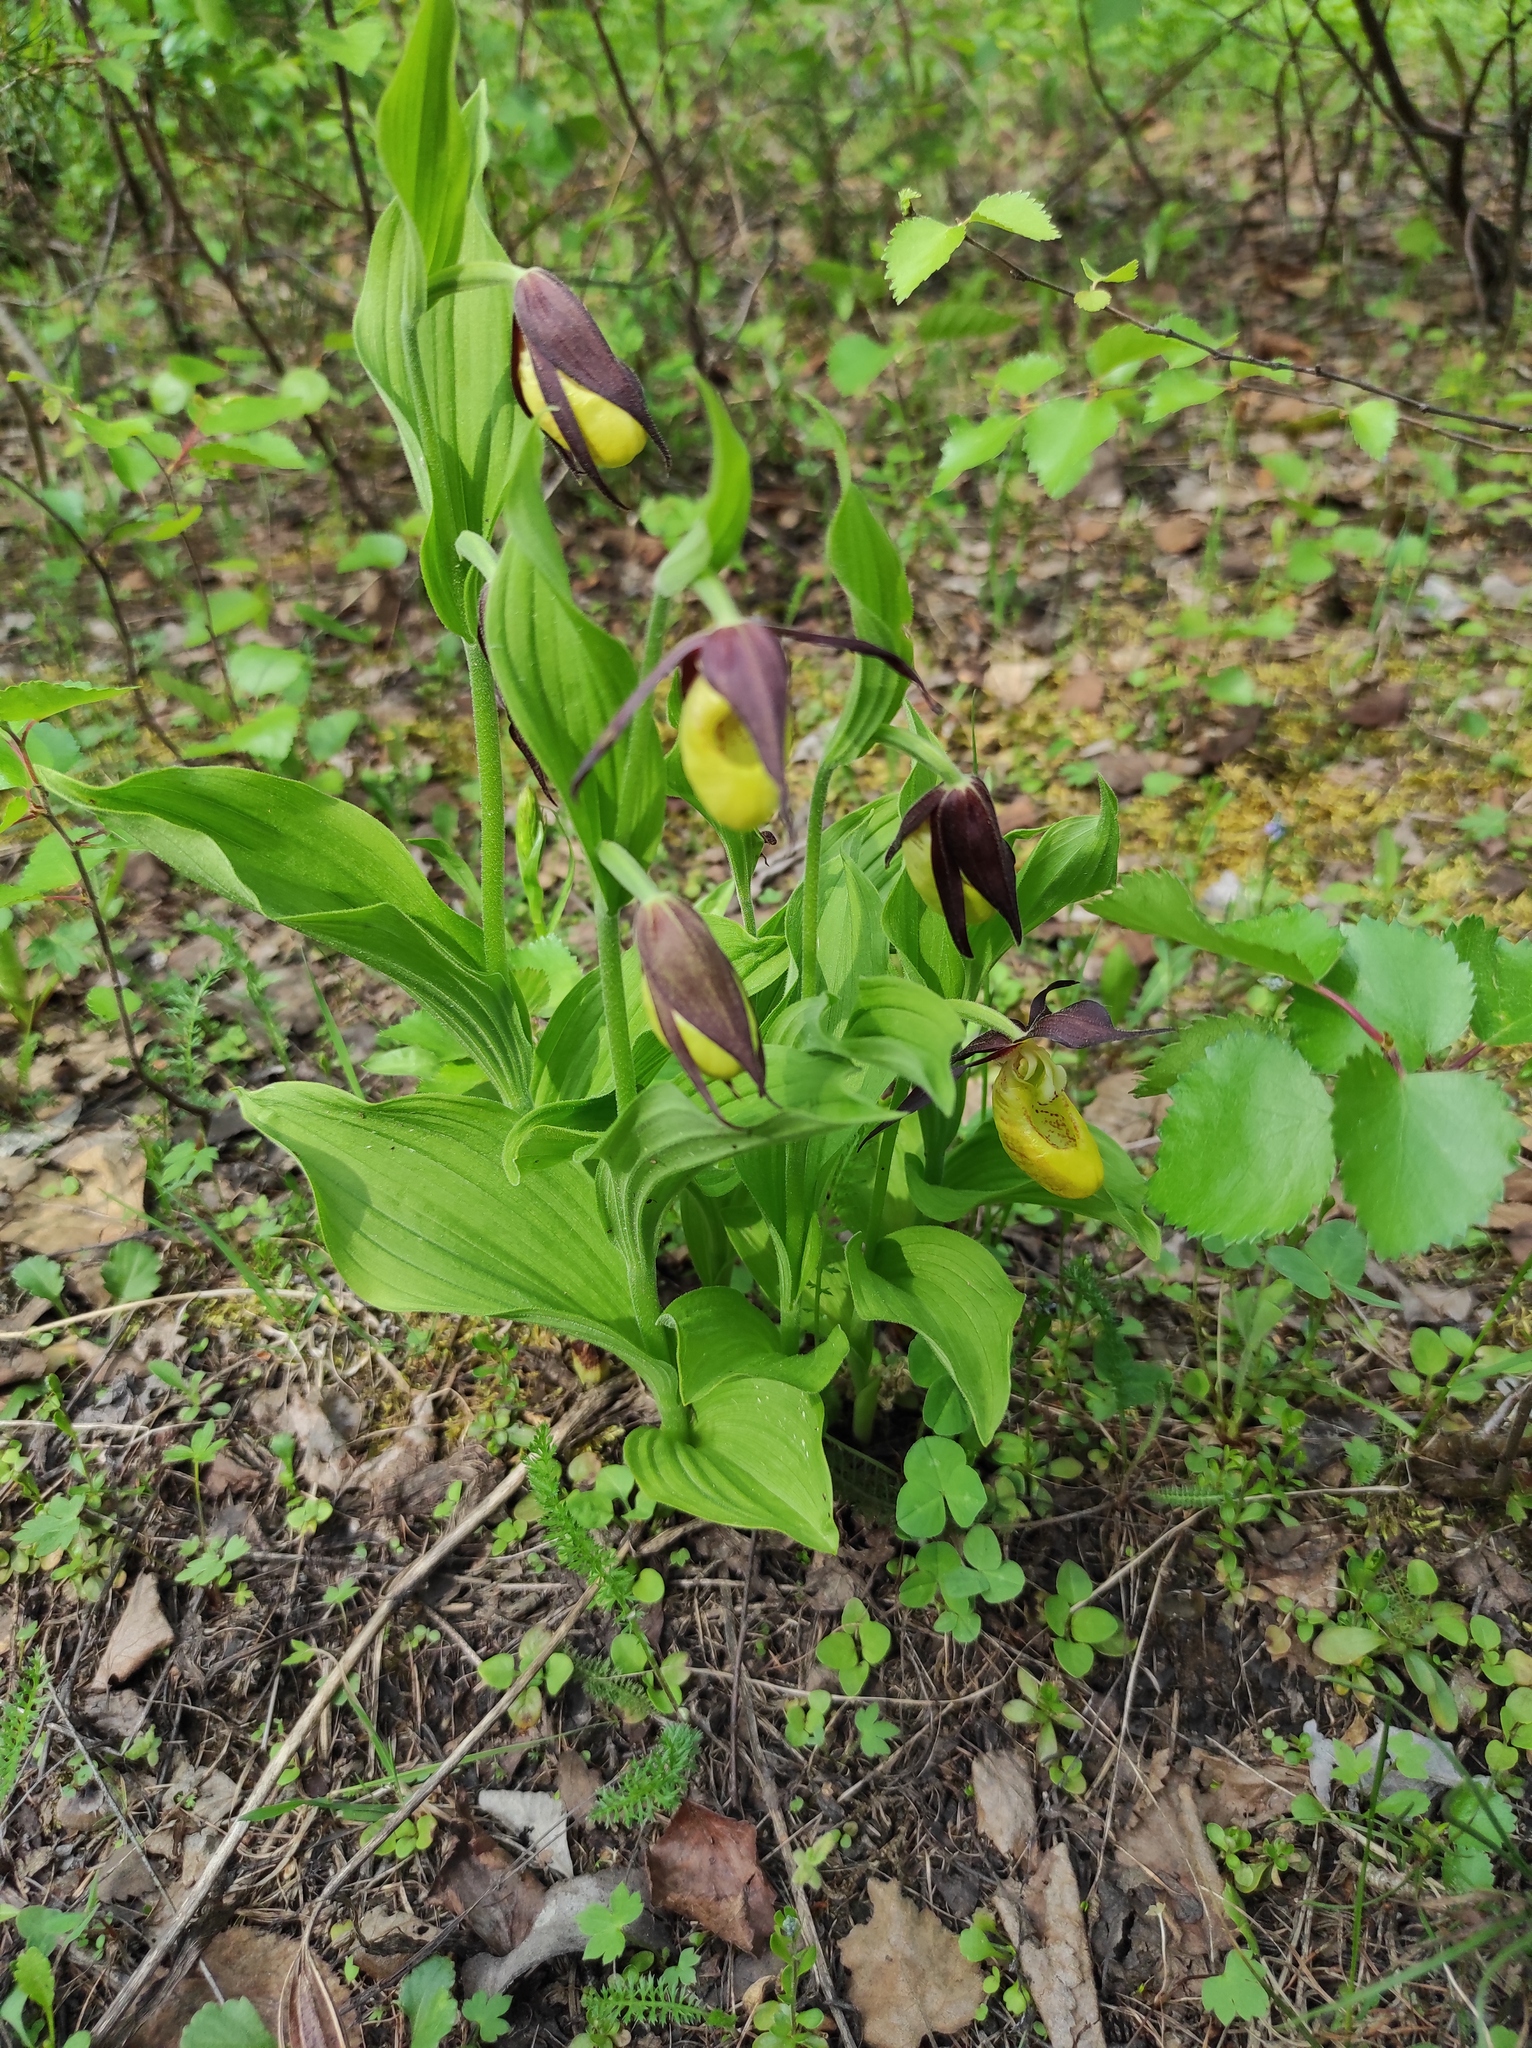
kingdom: Plantae
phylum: Tracheophyta
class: Liliopsida
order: Asparagales
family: Orchidaceae
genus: Cypripedium
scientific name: Cypripedium calceolus
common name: Lady's-slipper
